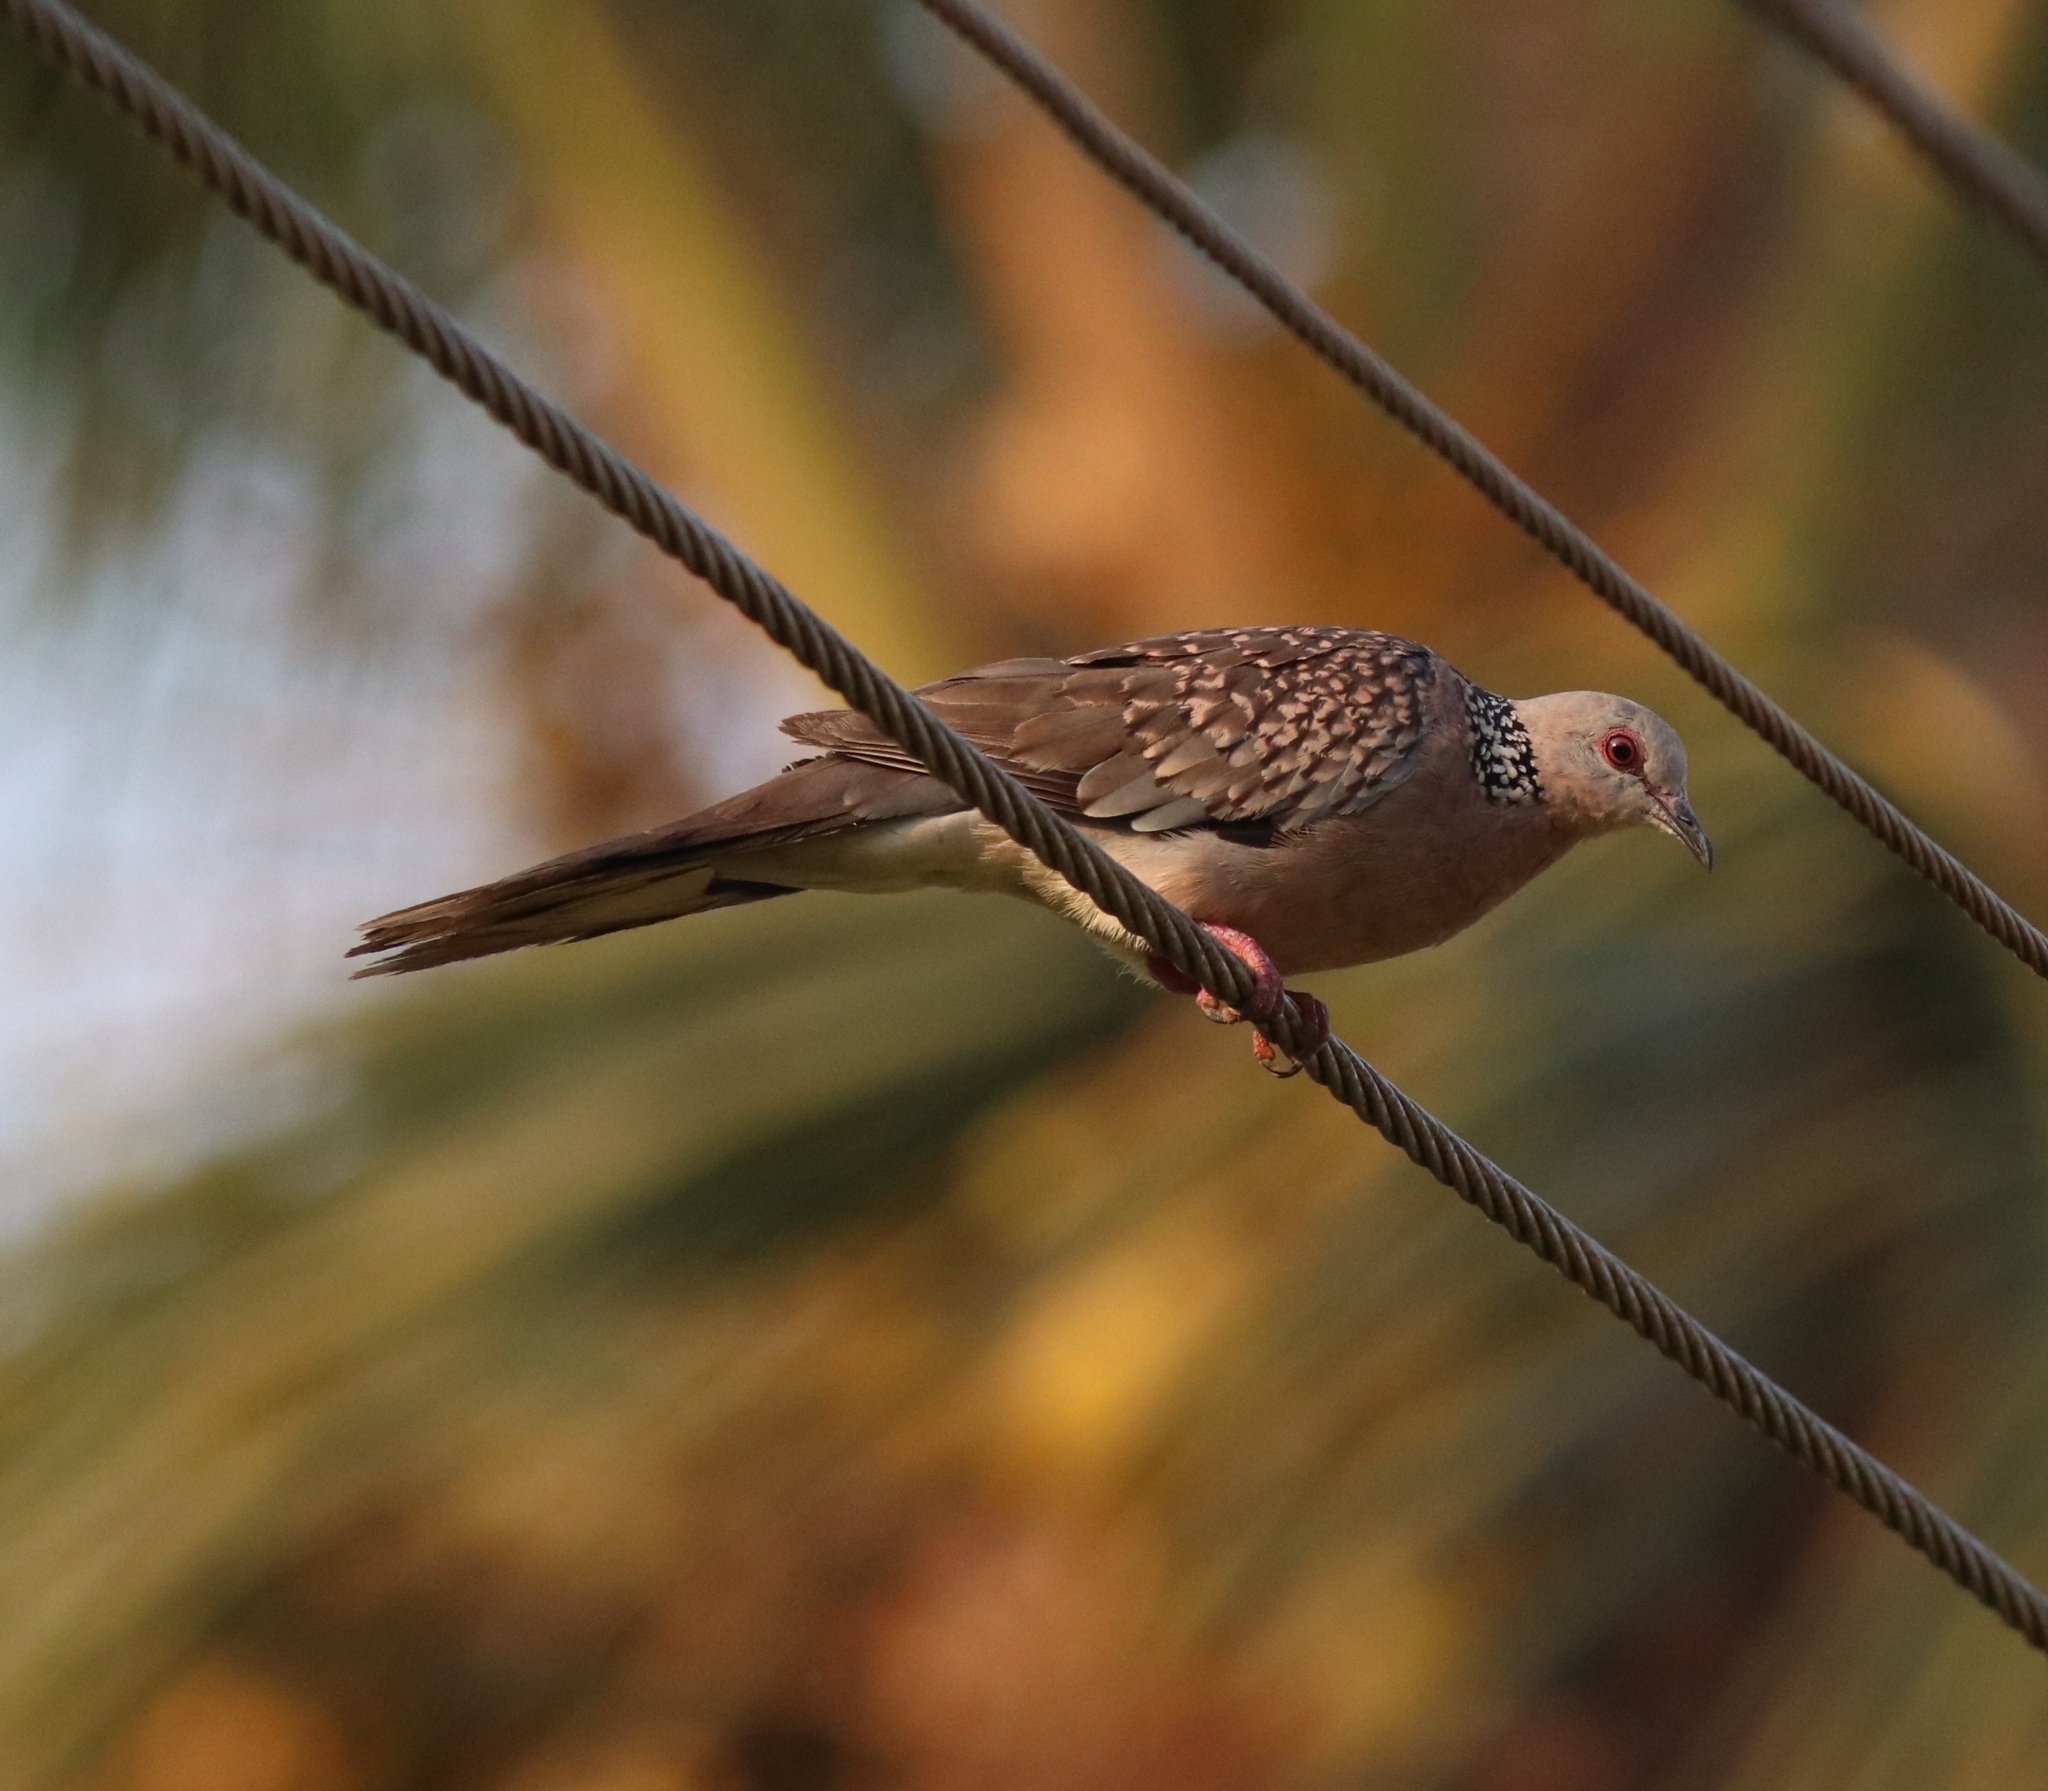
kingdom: Animalia
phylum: Chordata
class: Aves
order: Columbiformes
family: Columbidae
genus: Spilopelia
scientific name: Spilopelia chinensis
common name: Spotted dove
